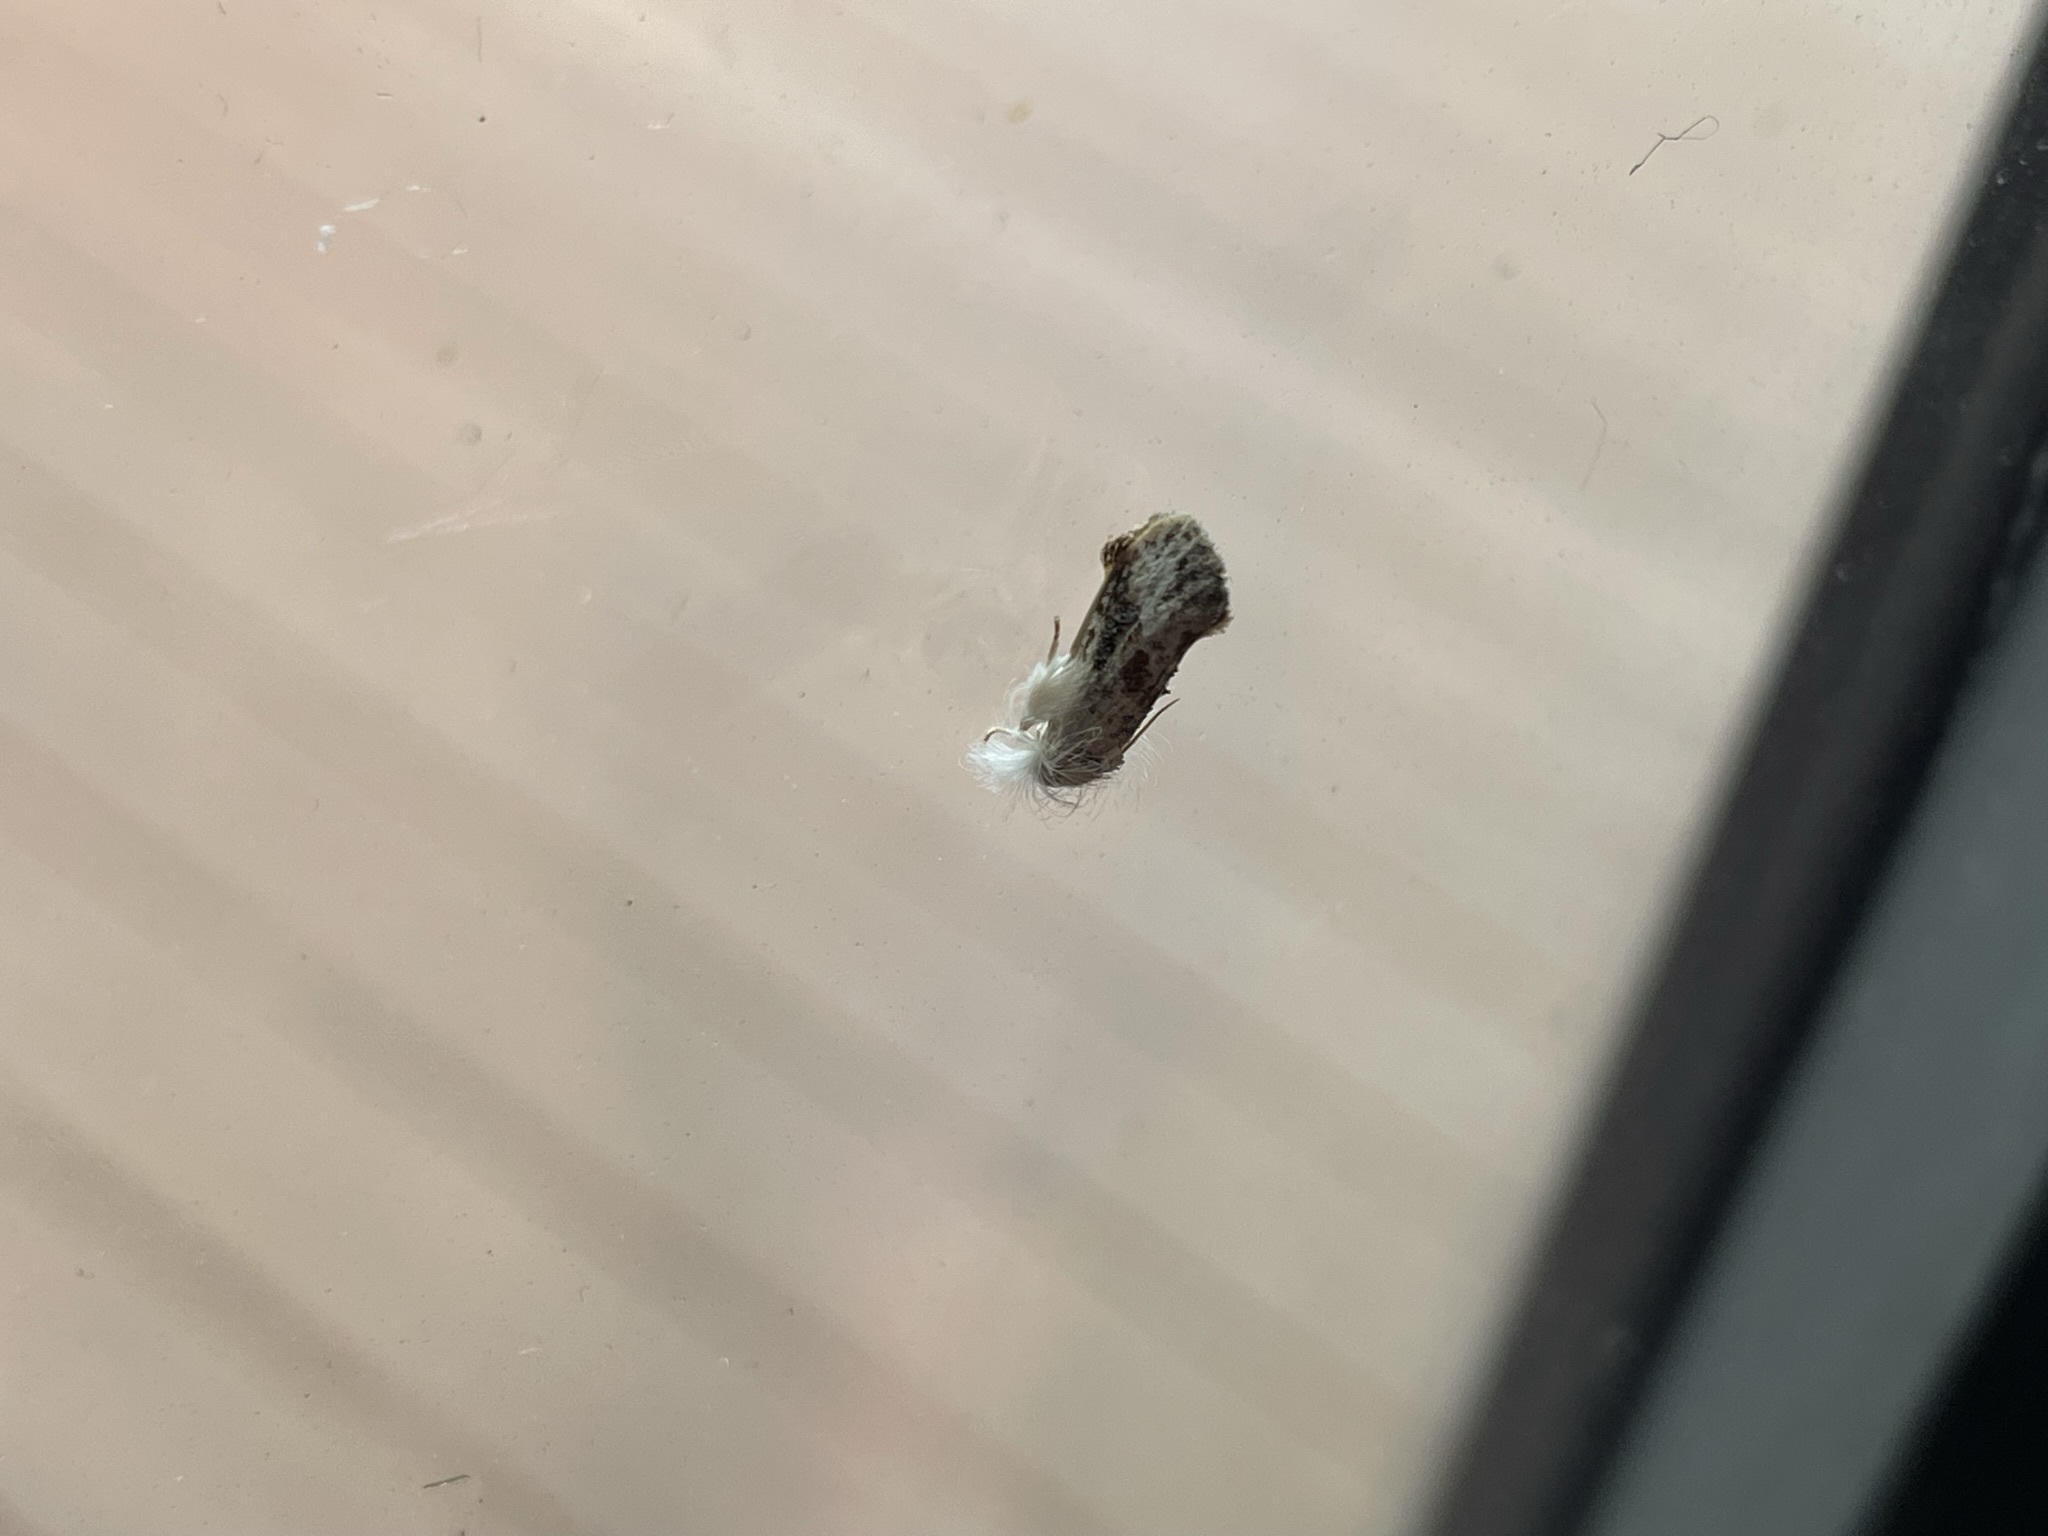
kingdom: Animalia
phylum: Arthropoda
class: Insecta
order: Lepidoptera
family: Tineidae
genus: Acrolophus
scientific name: Acrolophus mycetophagus
